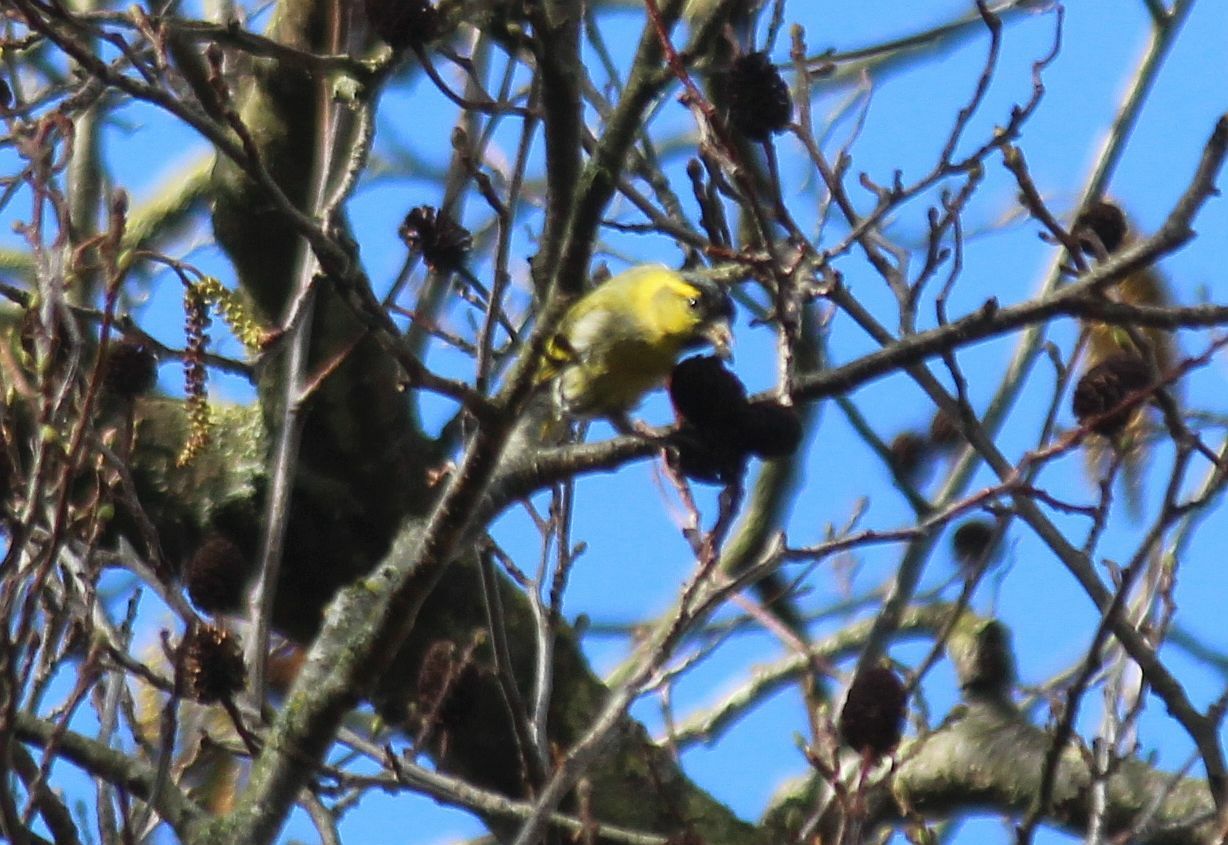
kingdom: Animalia
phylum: Chordata
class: Aves
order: Passeriformes
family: Fringillidae
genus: Spinus
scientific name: Spinus spinus
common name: Eurasian siskin
